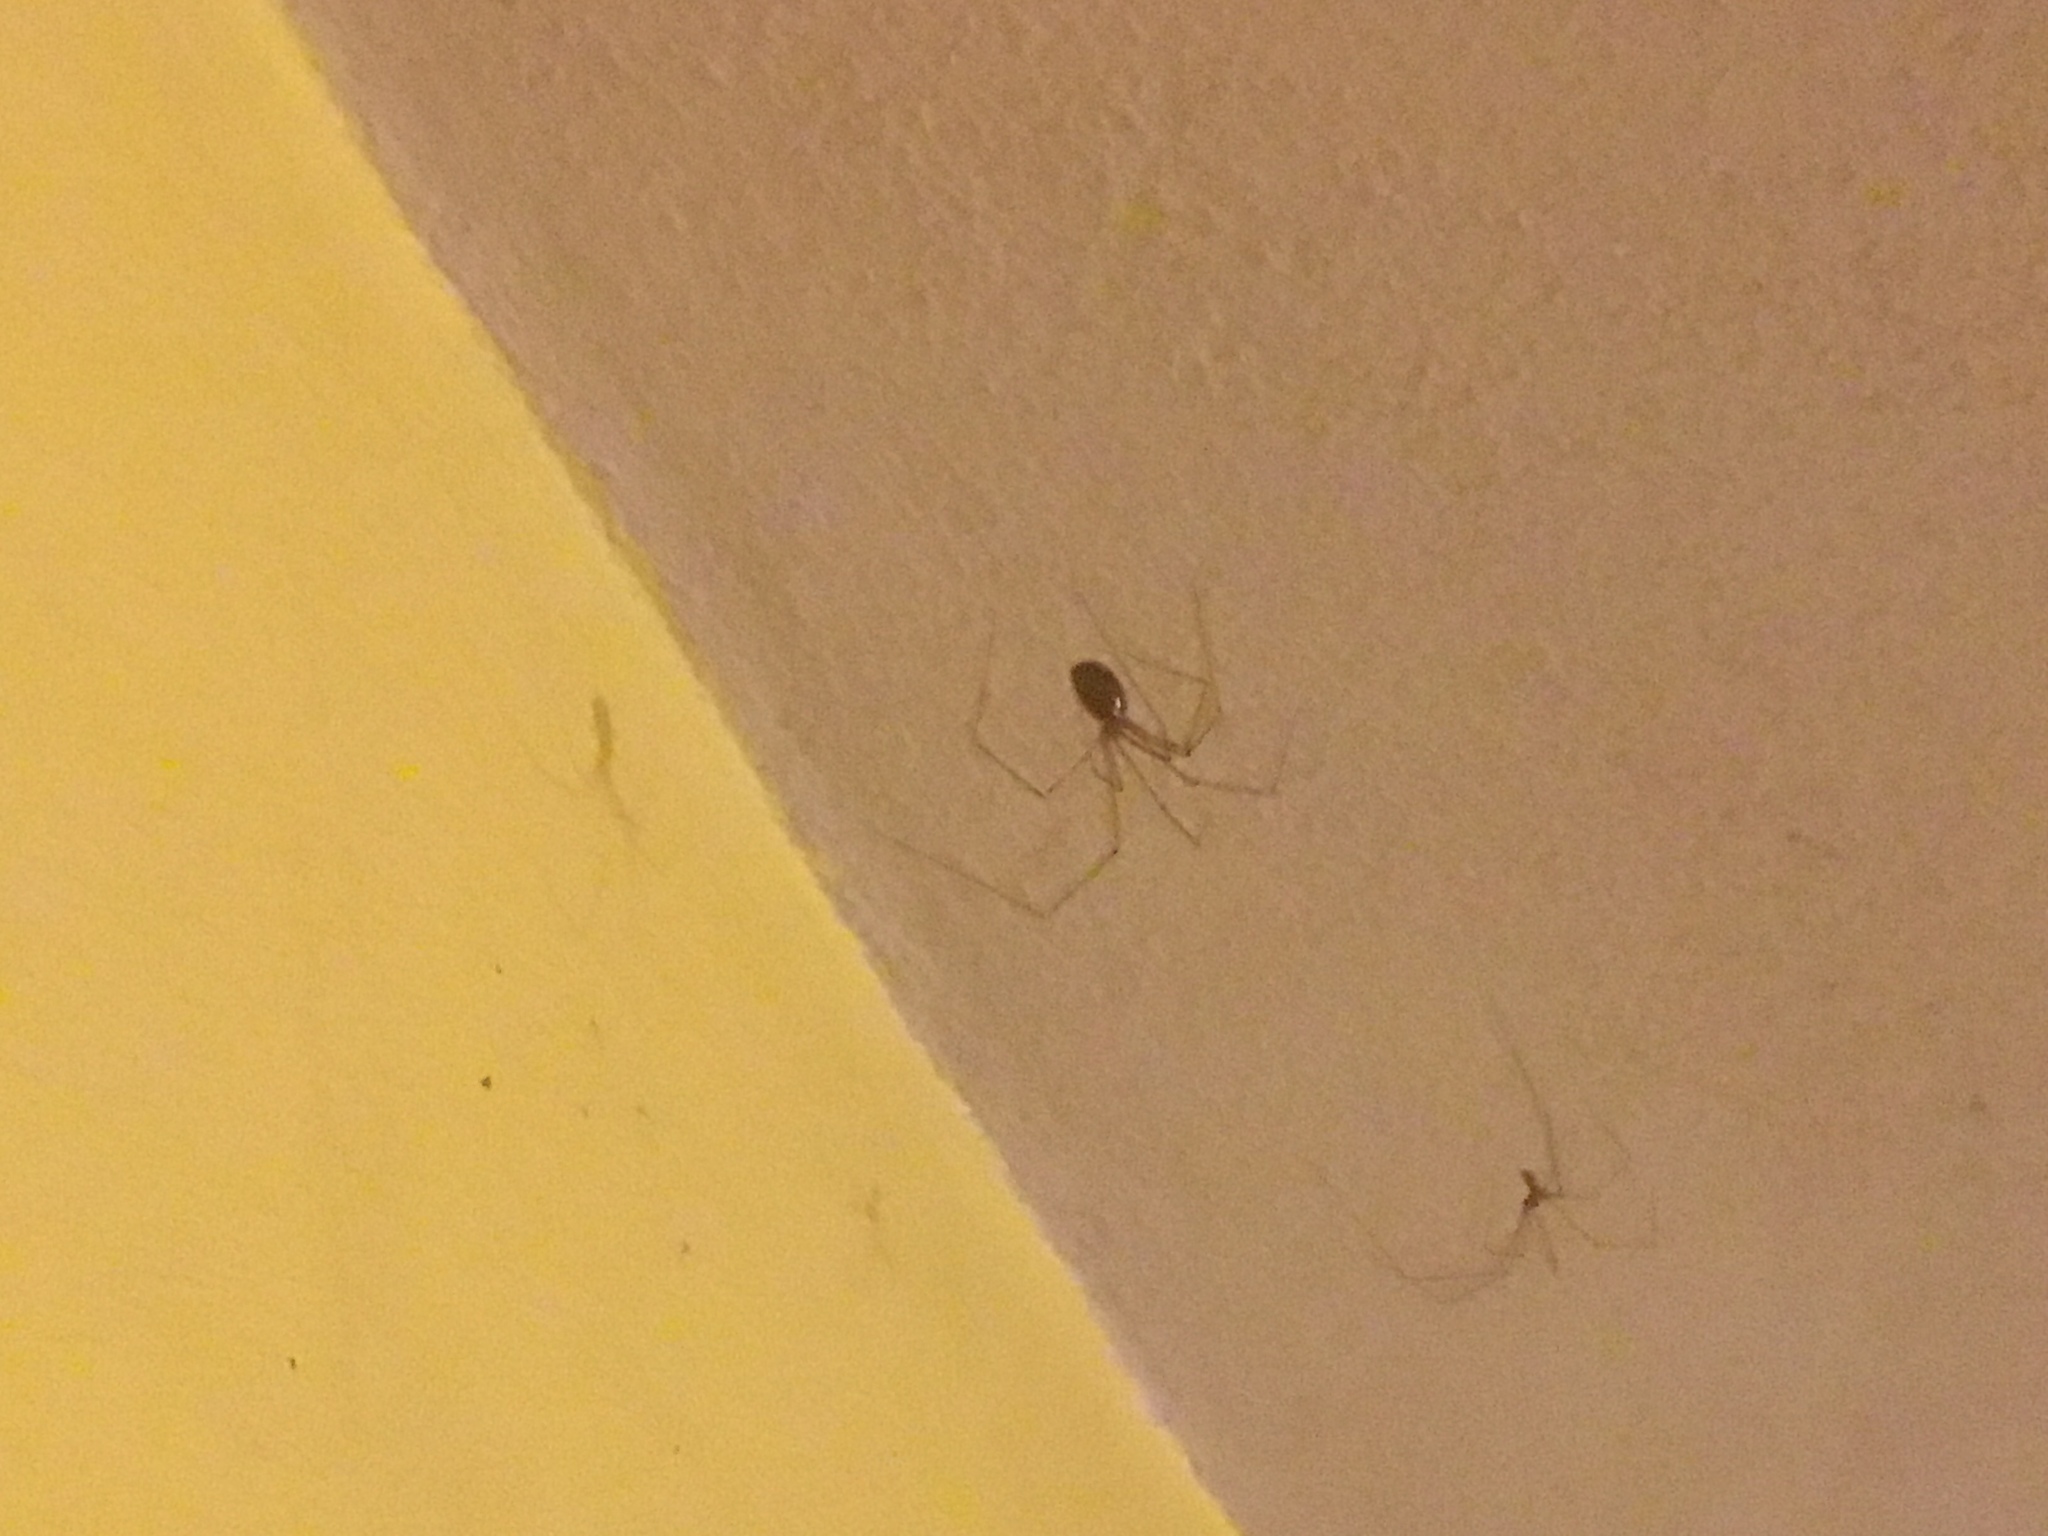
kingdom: Animalia
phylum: Arthropoda
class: Arachnida
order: Araneae
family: Pholcidae
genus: Pholcus
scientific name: Pholcus phalangioides
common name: Longbodied cellar spider
